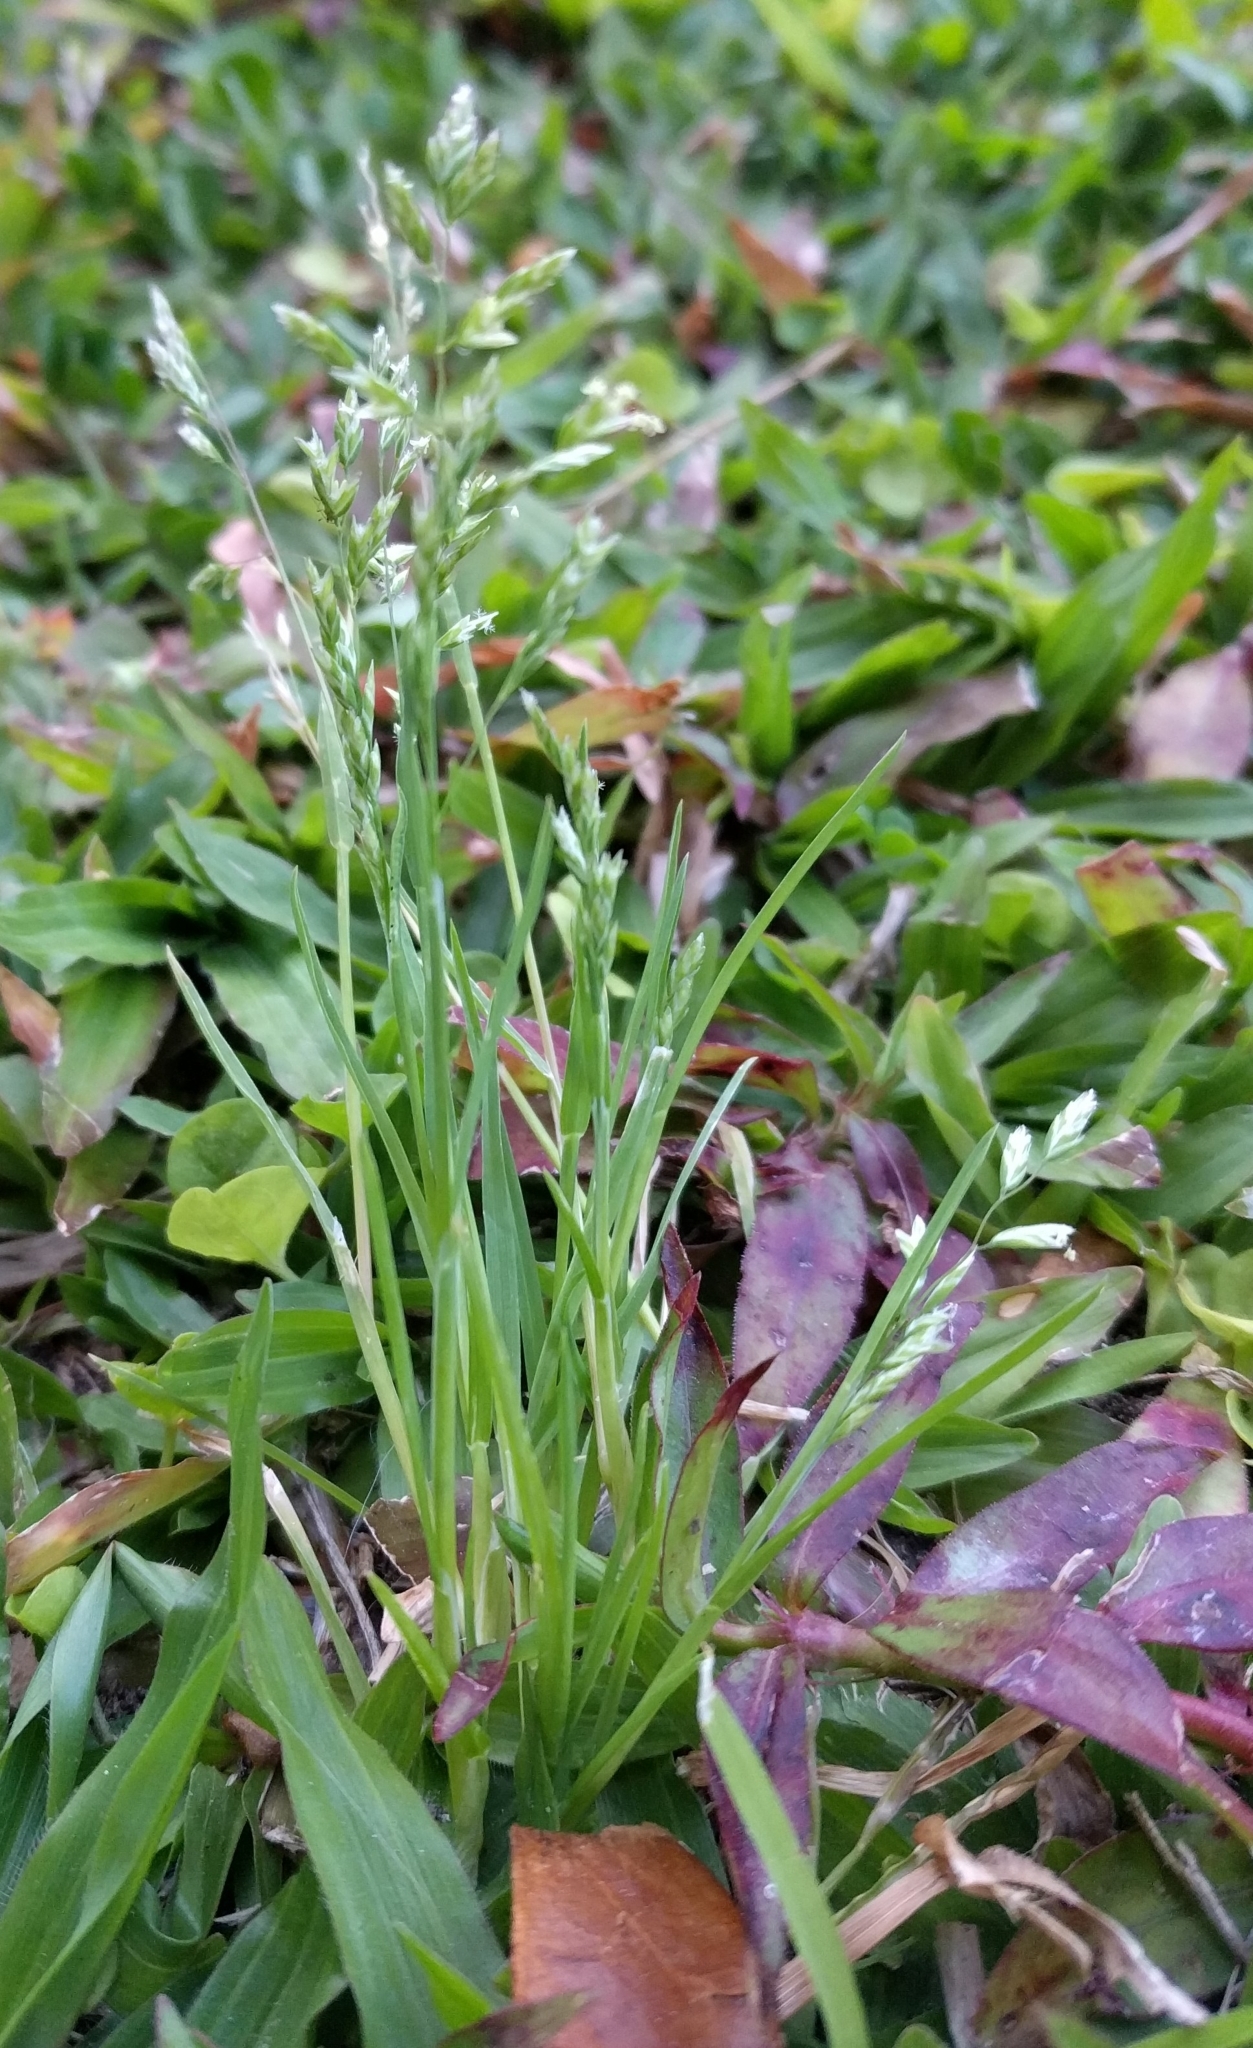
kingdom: Plantae
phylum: Tracheophyta
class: Liliopsida
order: Poales
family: Poaceae
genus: Poa
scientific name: Poa annua
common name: Annual bluegrass
